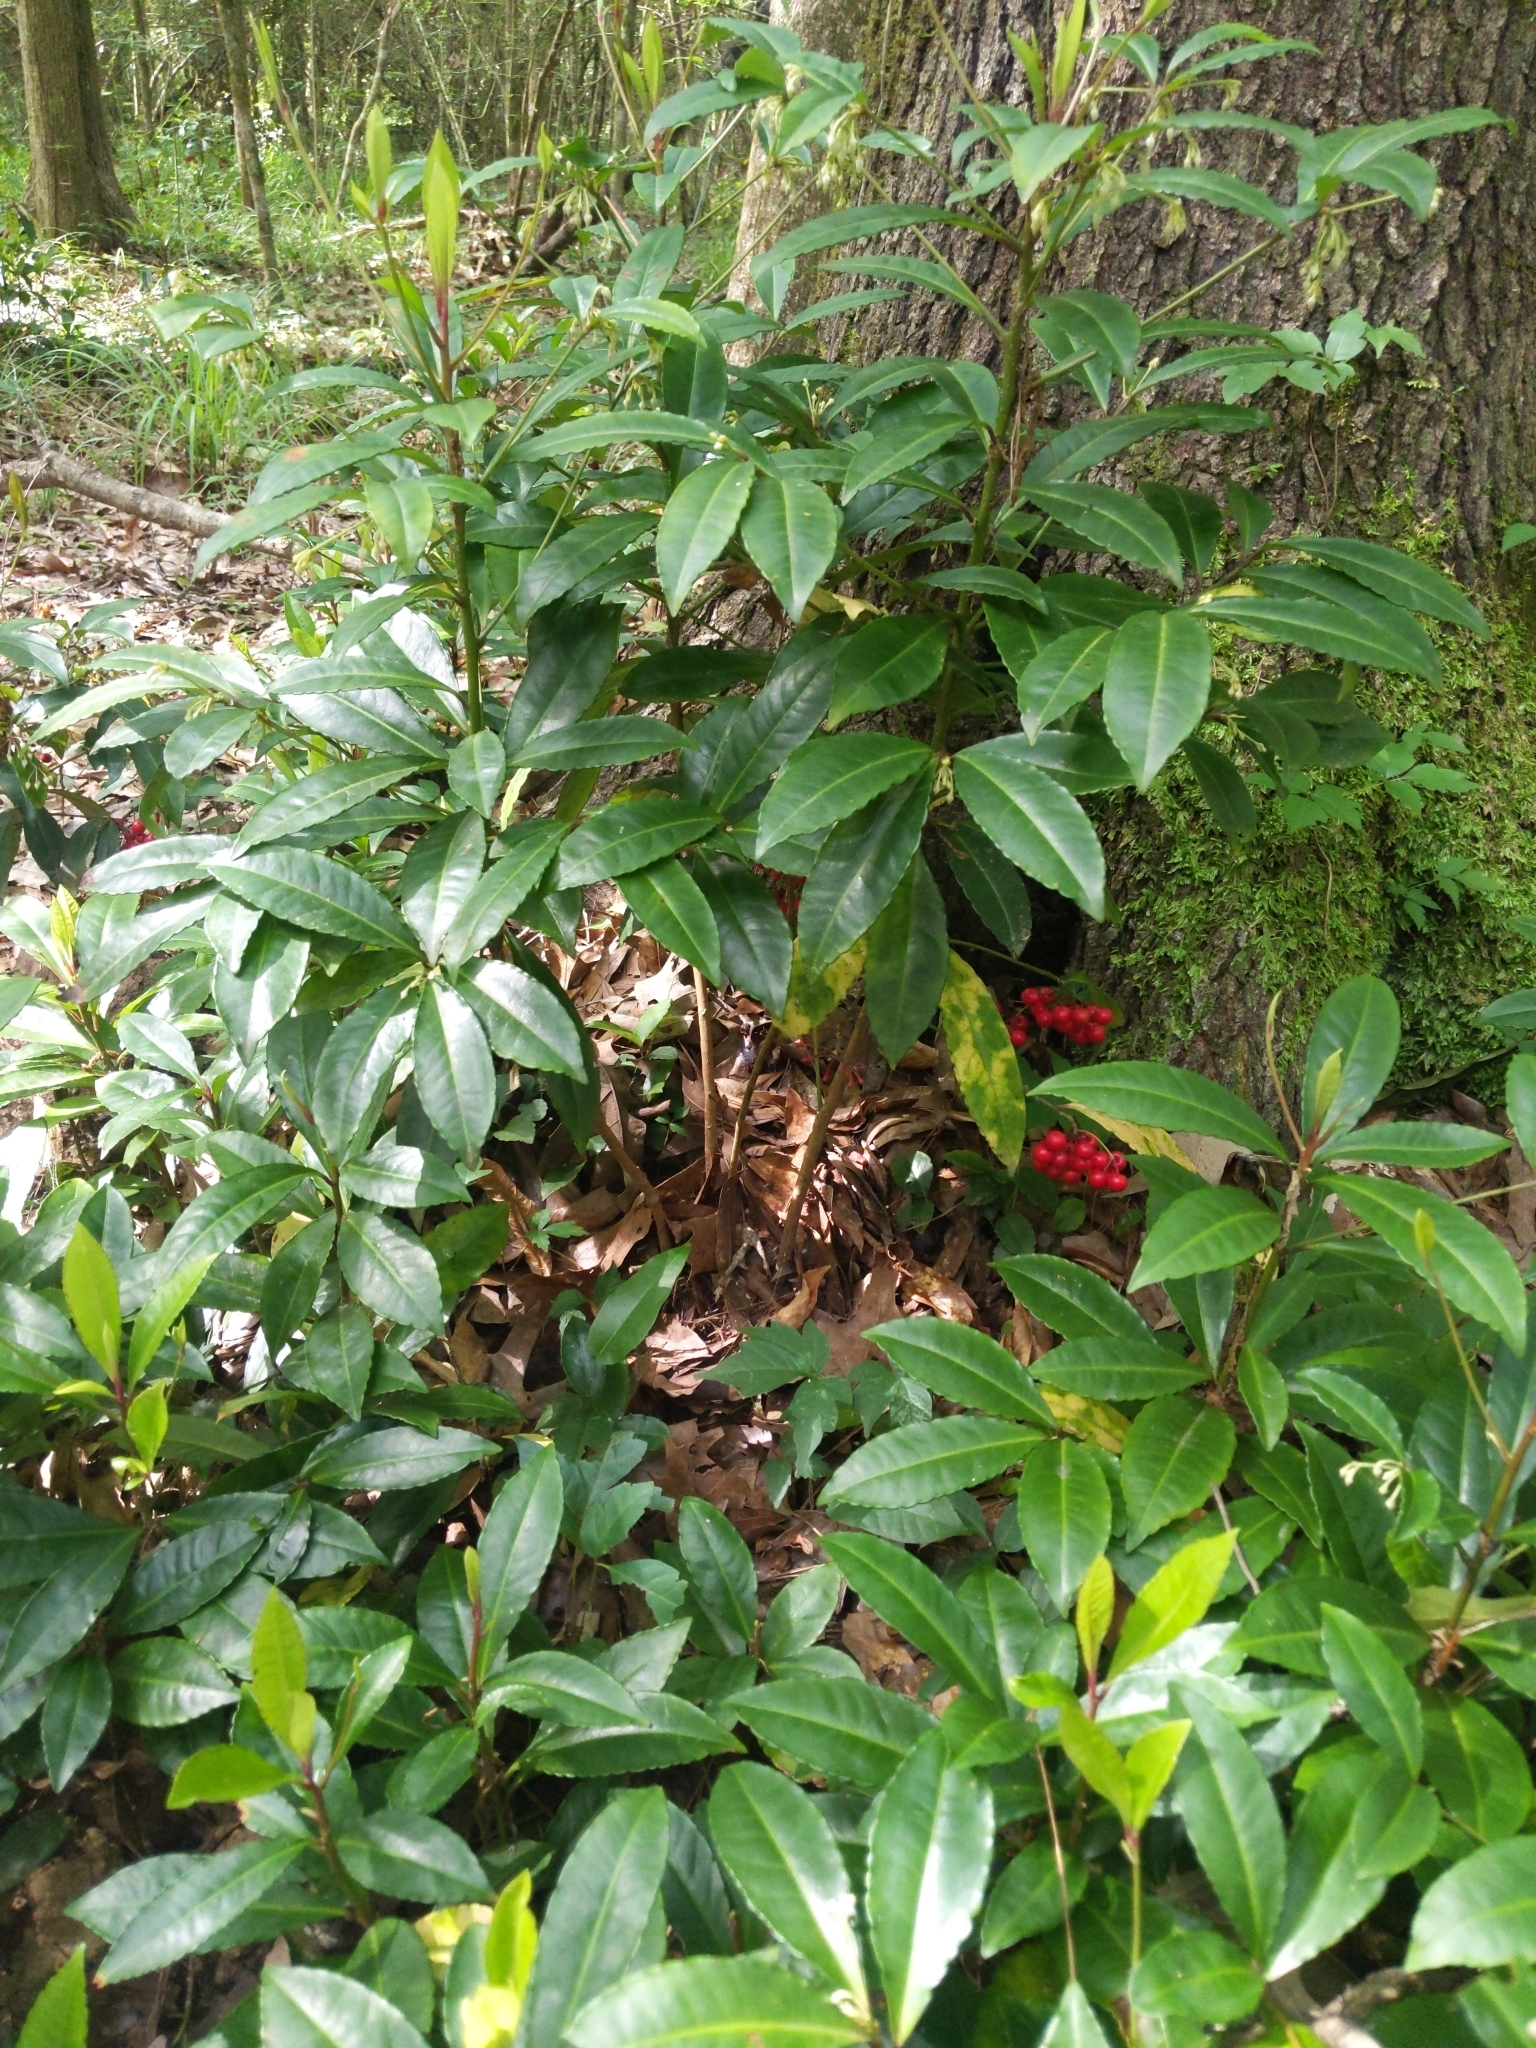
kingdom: Plantae
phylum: Tracheophyta
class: Magnoliopsida
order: Ericales
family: Primulaceae
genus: Ardisia
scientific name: Ardisia crenata
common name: Hen's eyes
